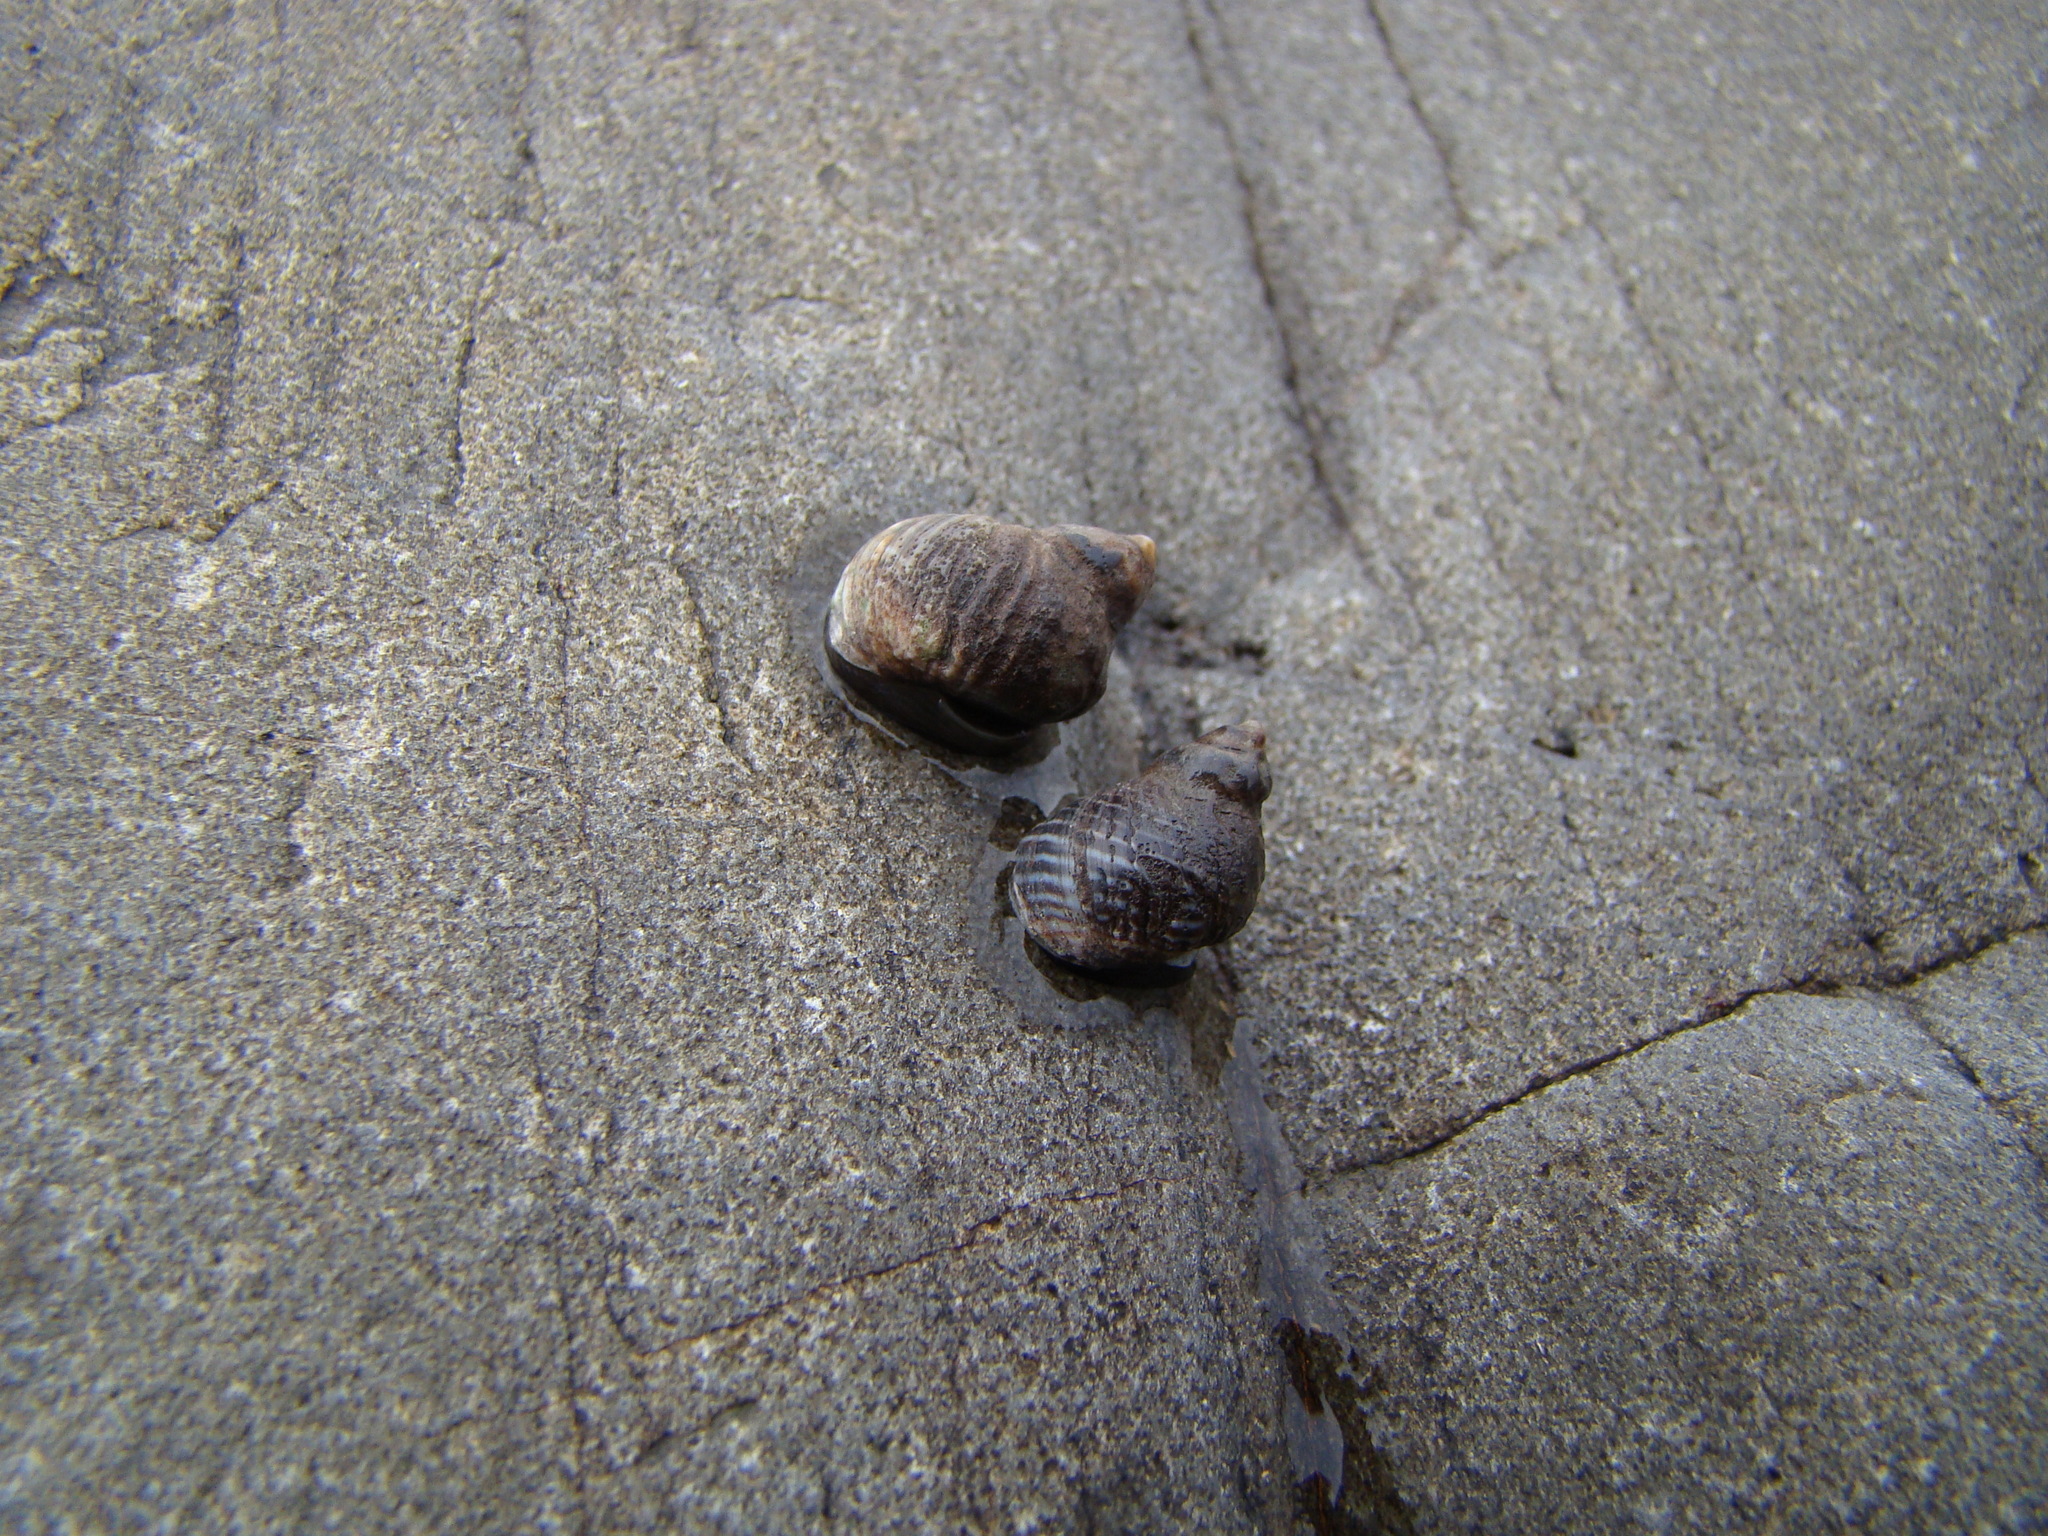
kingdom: Animalia
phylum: Mollusca
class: Gastropoda
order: Littorinimorpha
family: Littorinidae
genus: Austrolittorina
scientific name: Austrolittorina cincta
